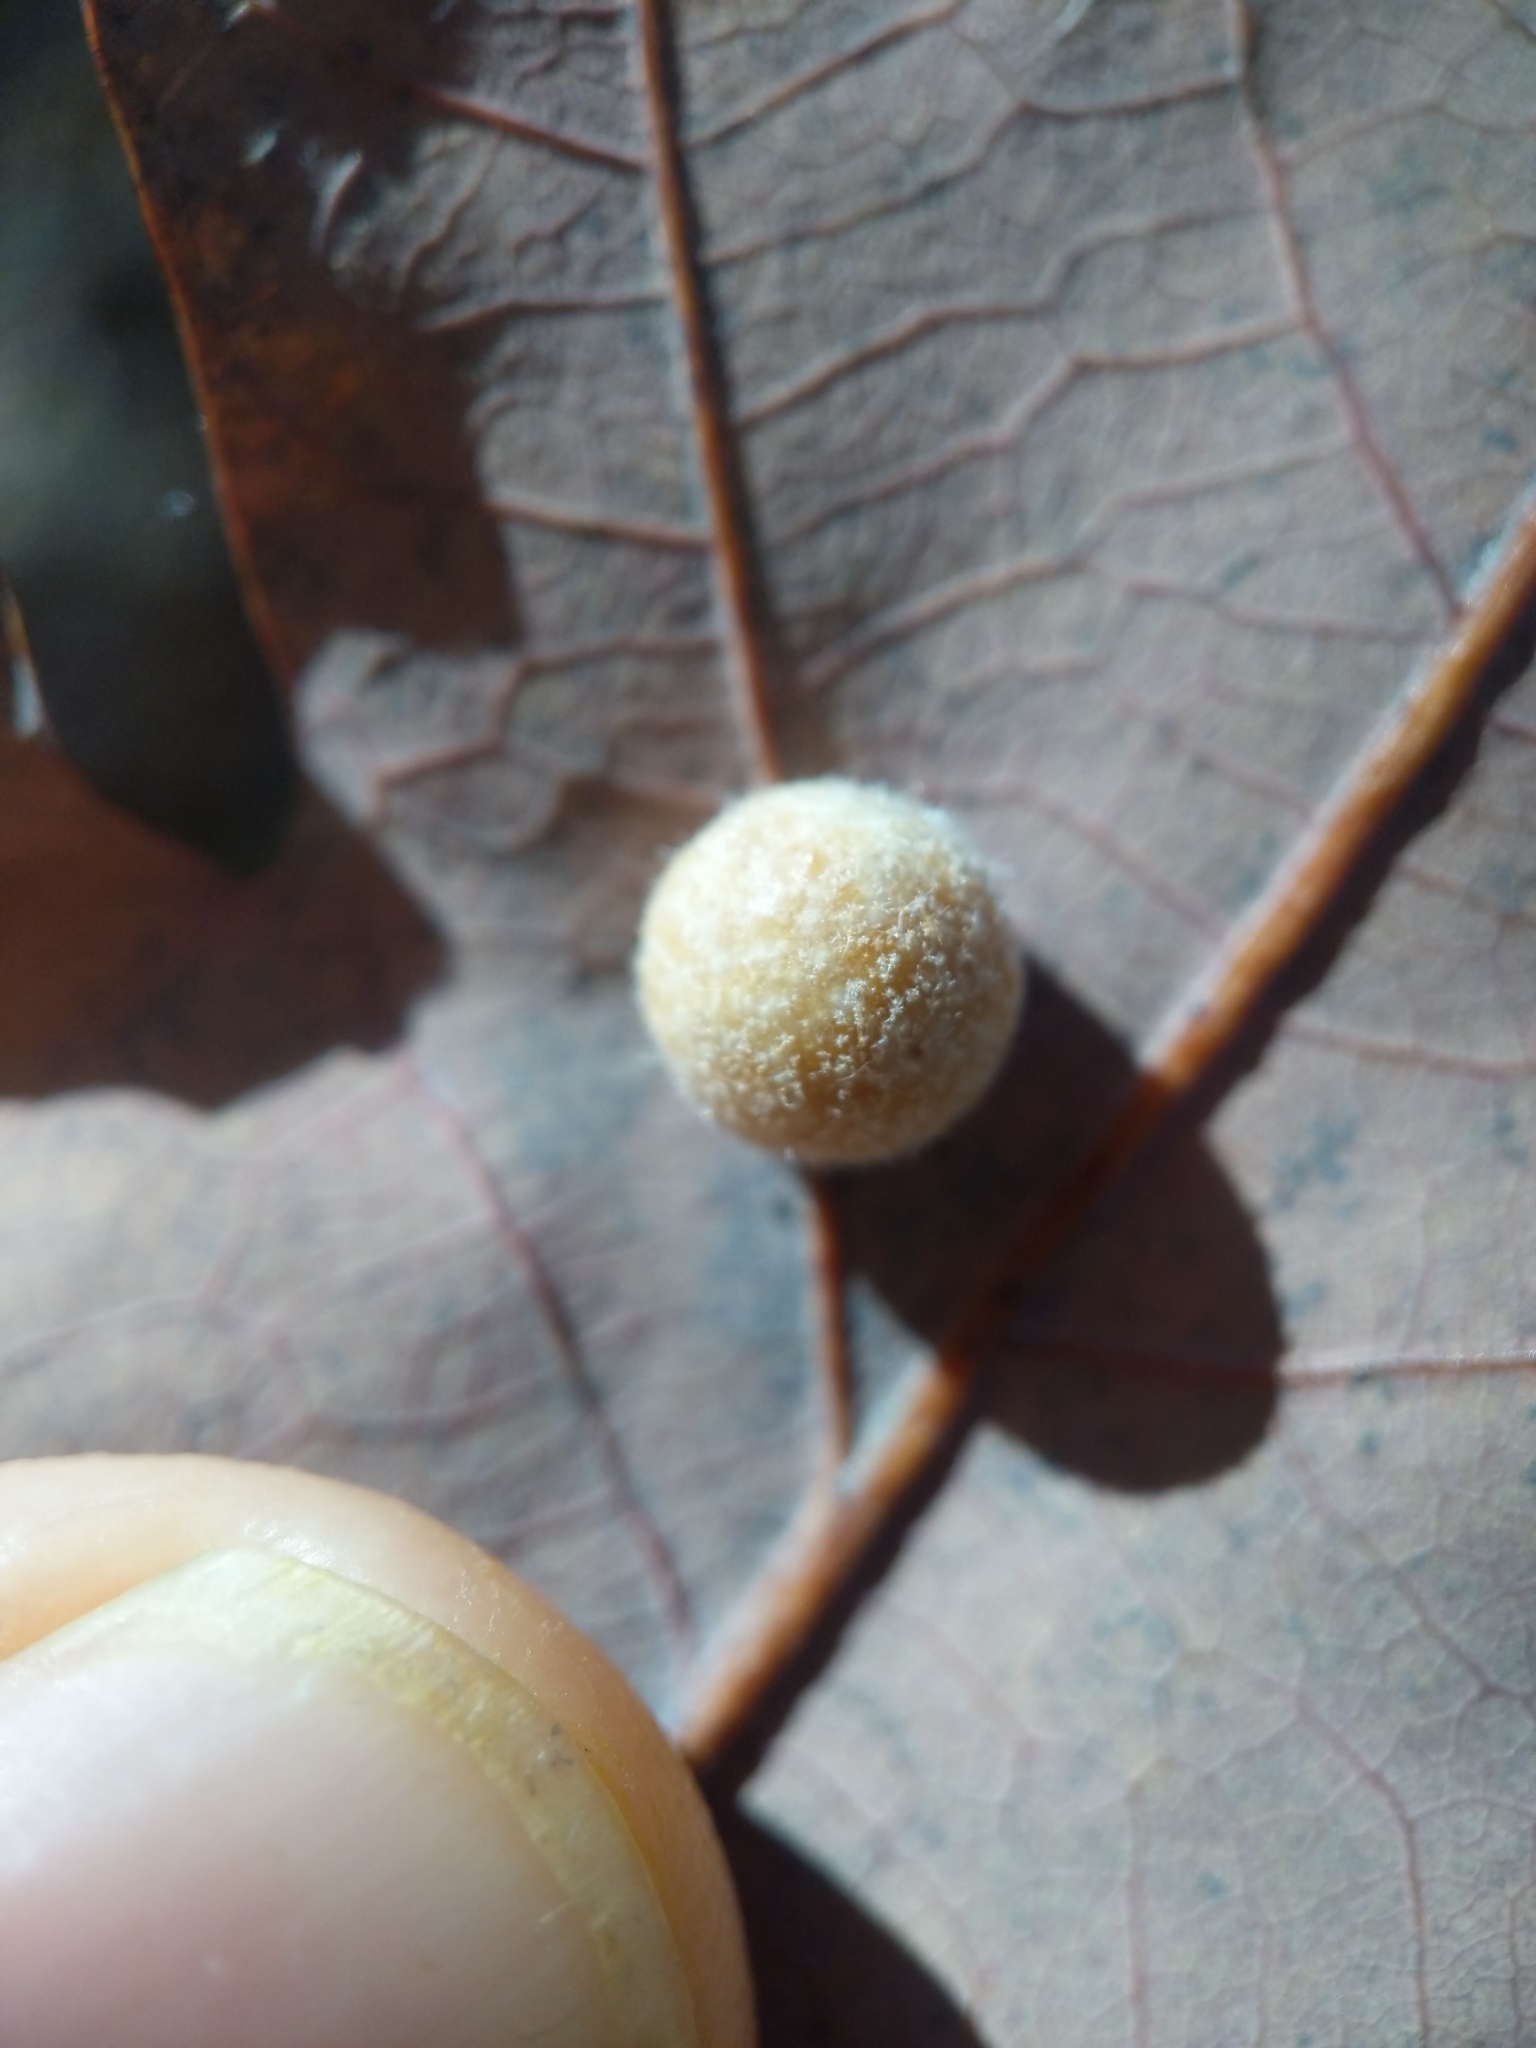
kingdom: Animalia
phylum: Arthropoda
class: Insecta
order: Hymenoptera
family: Cynipidae
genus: Philonix
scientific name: Philonix fulvicollis
